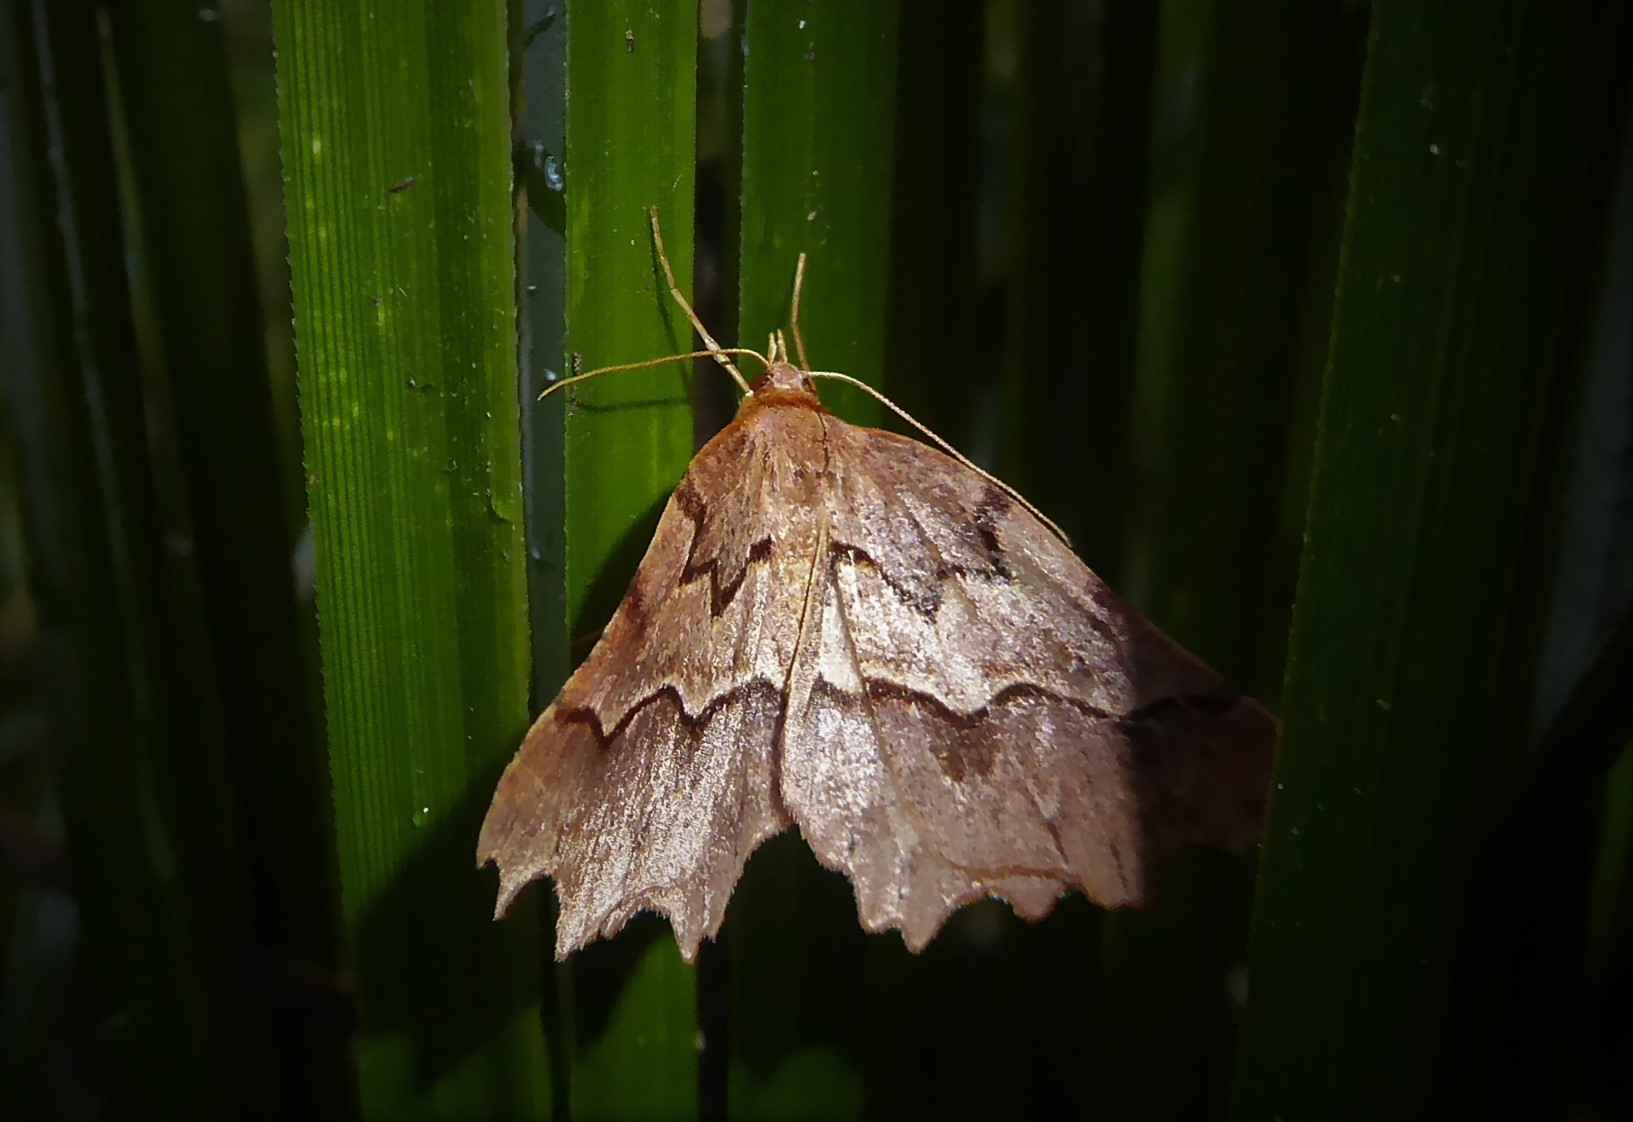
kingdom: Animalia
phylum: Arthropoda
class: Insecta
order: Lepidoptera
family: Geometridae
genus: Ischalis
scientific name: Ischalis fortinata
